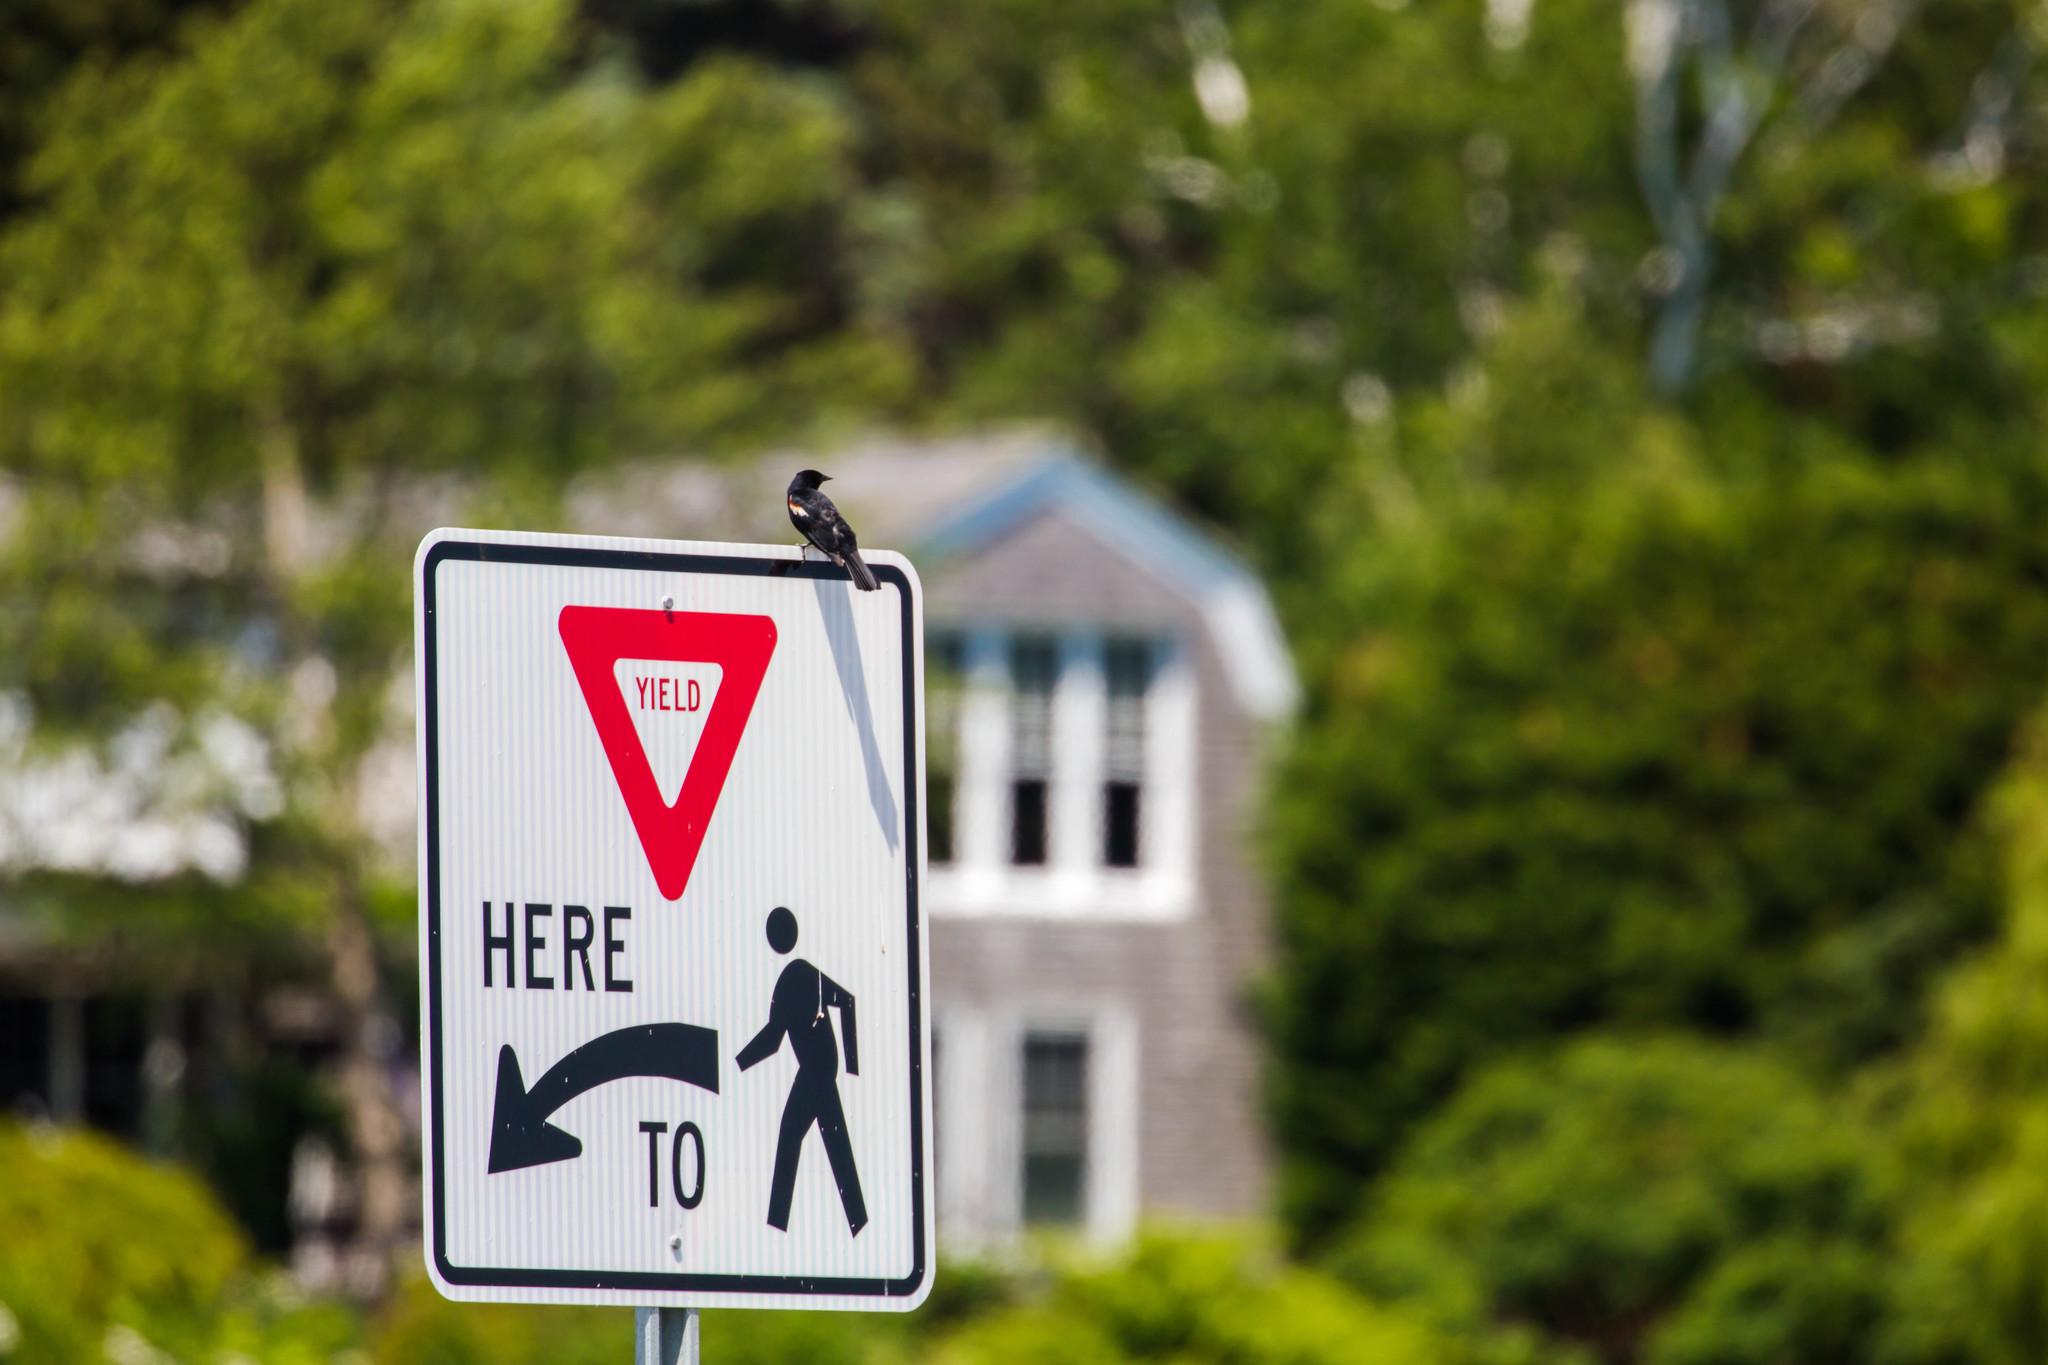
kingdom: Animalia
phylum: Chordata
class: Aves
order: Passeriformes
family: Icteridae
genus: Agelaius
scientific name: Agelaius phoeniceus
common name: Red-winged blackbird
